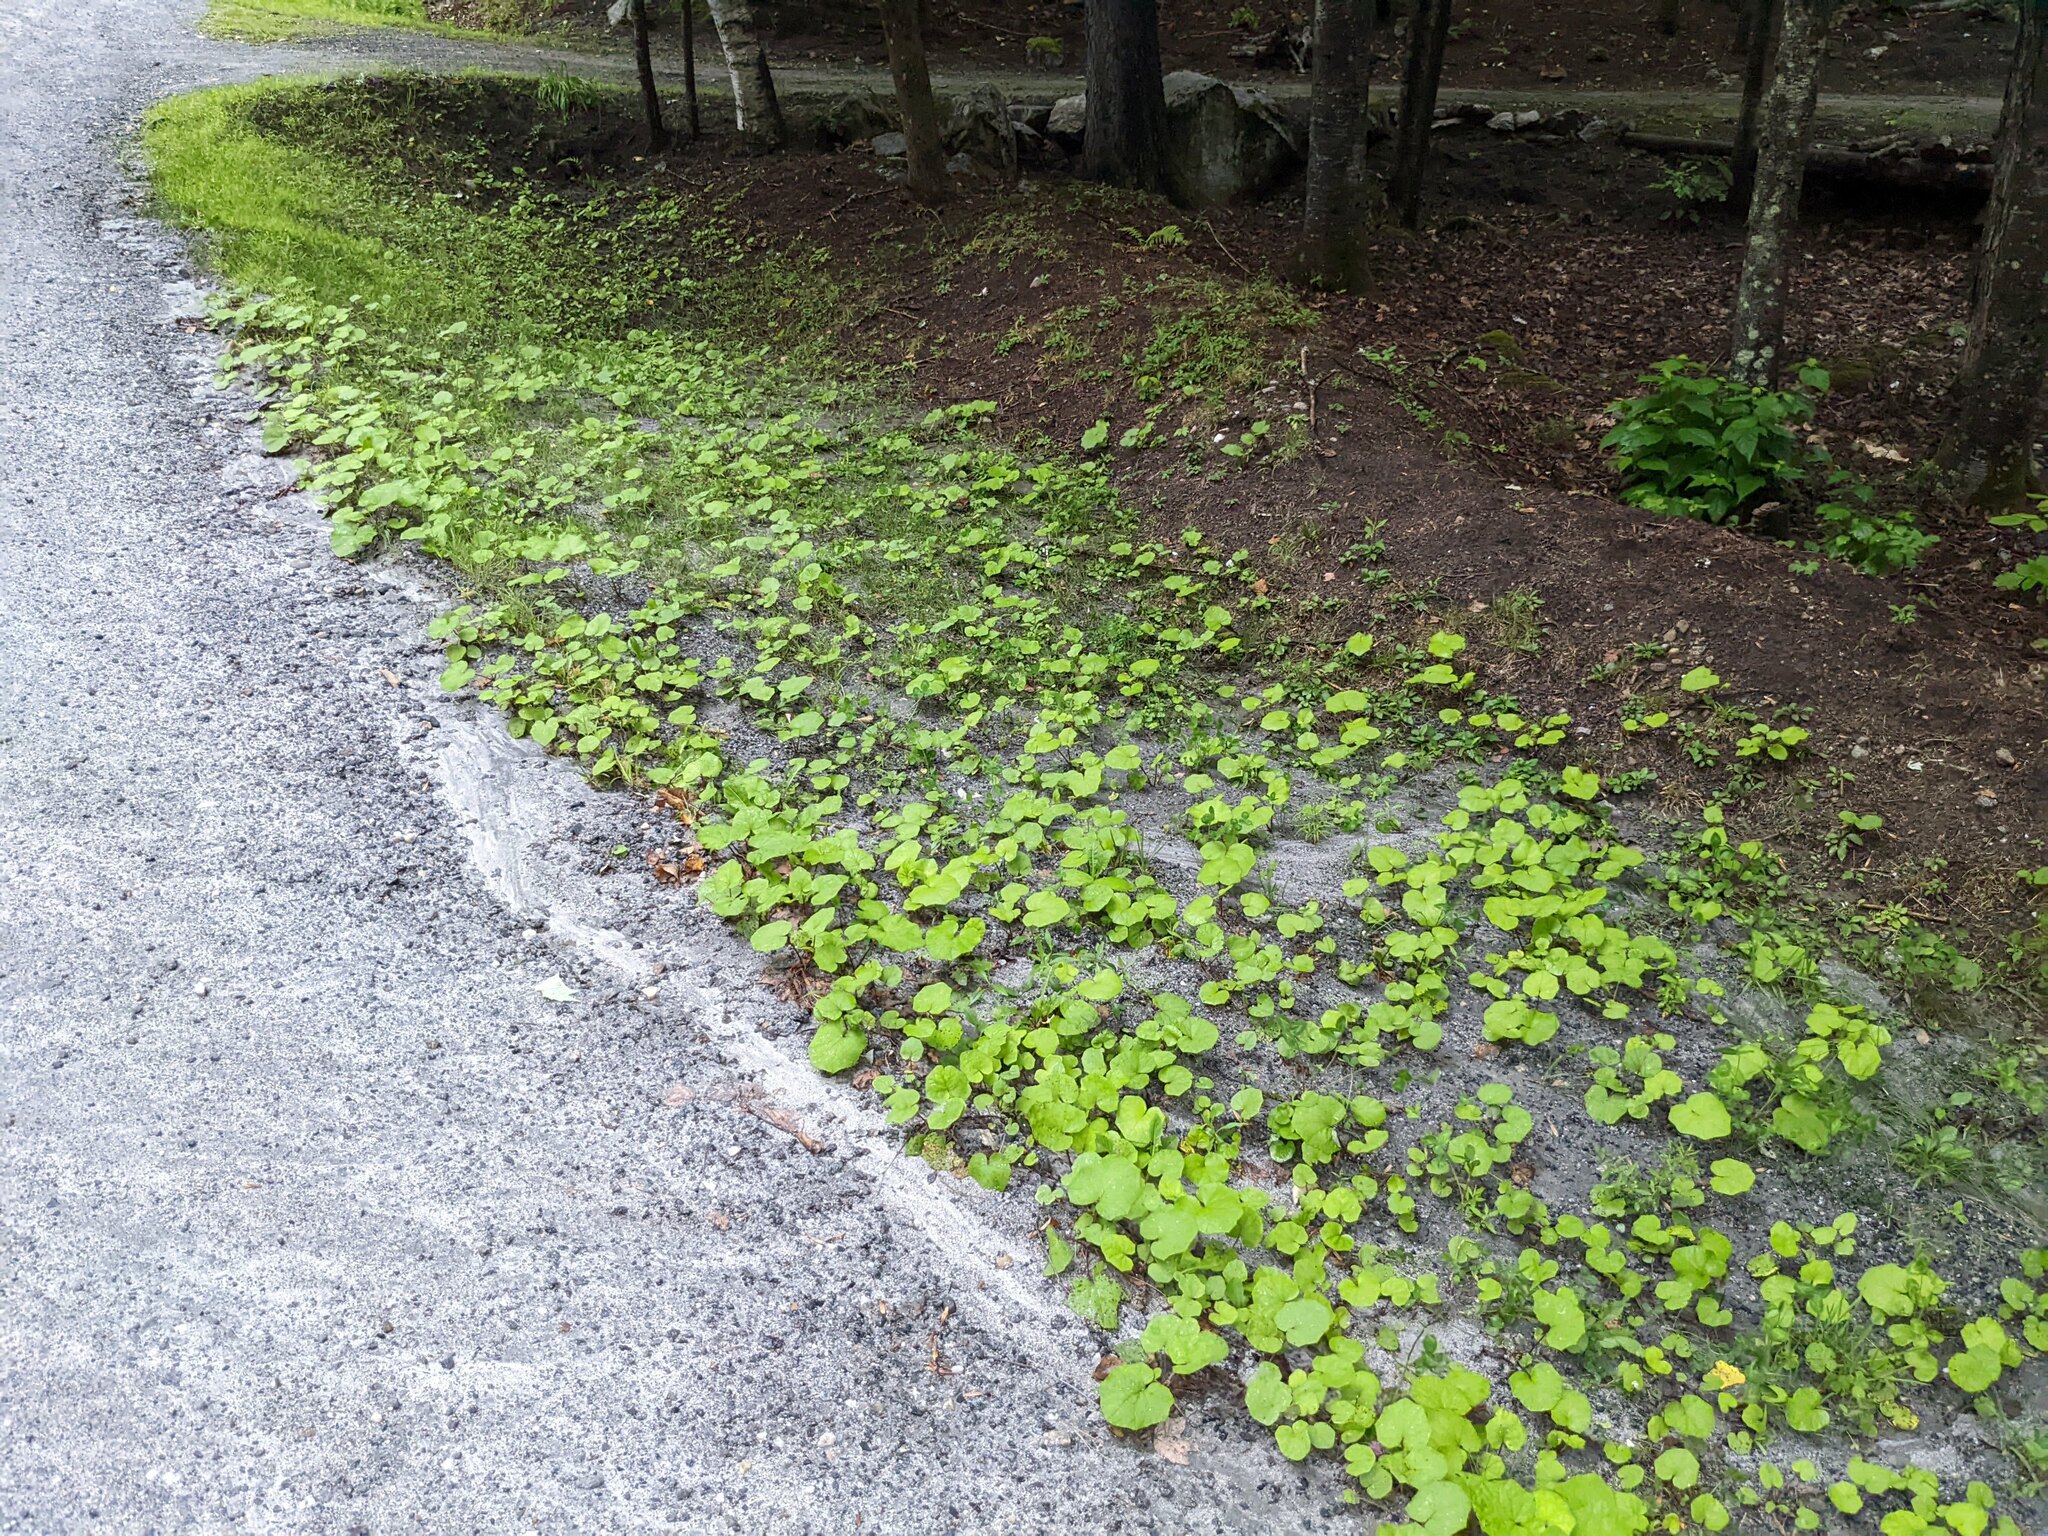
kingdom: Plantae
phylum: Tracheophyta
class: Magnoliopsida
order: Asterales
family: Asteraceae
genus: Tussilago
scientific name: Tussilago farfara
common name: Coltsfoot
